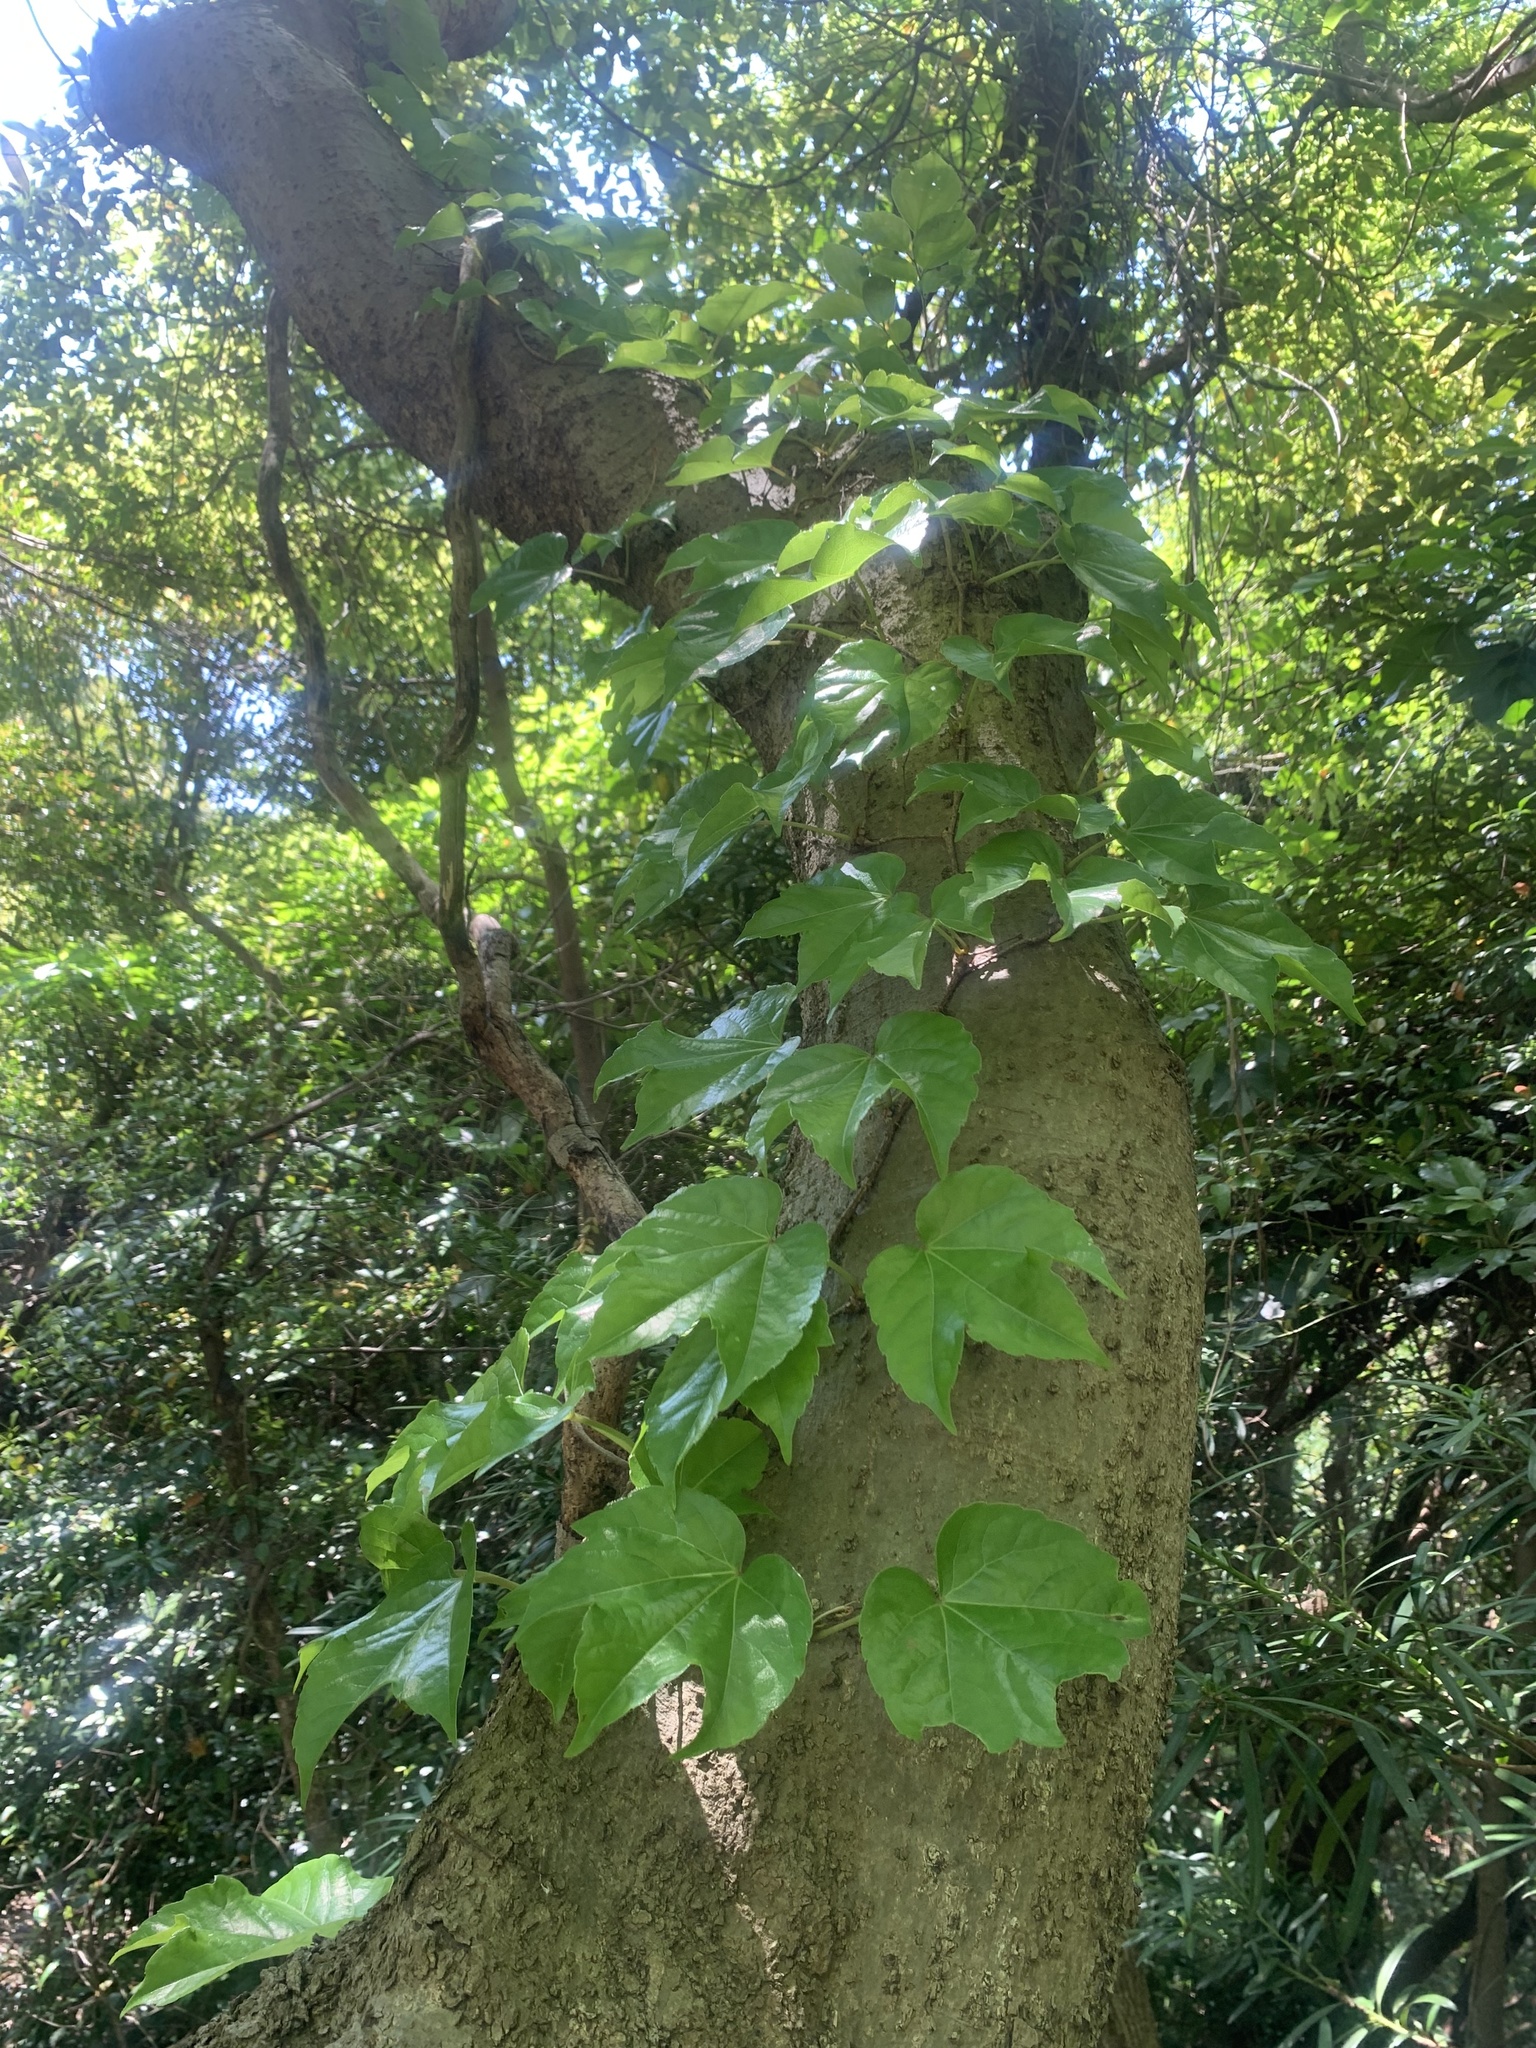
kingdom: Plantae
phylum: Tracheophyta
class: Magnoliopsida
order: Vitales
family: Vitaceae
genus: Parthenocissus
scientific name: Parthenocissus tricuspidata
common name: Boston ivy
